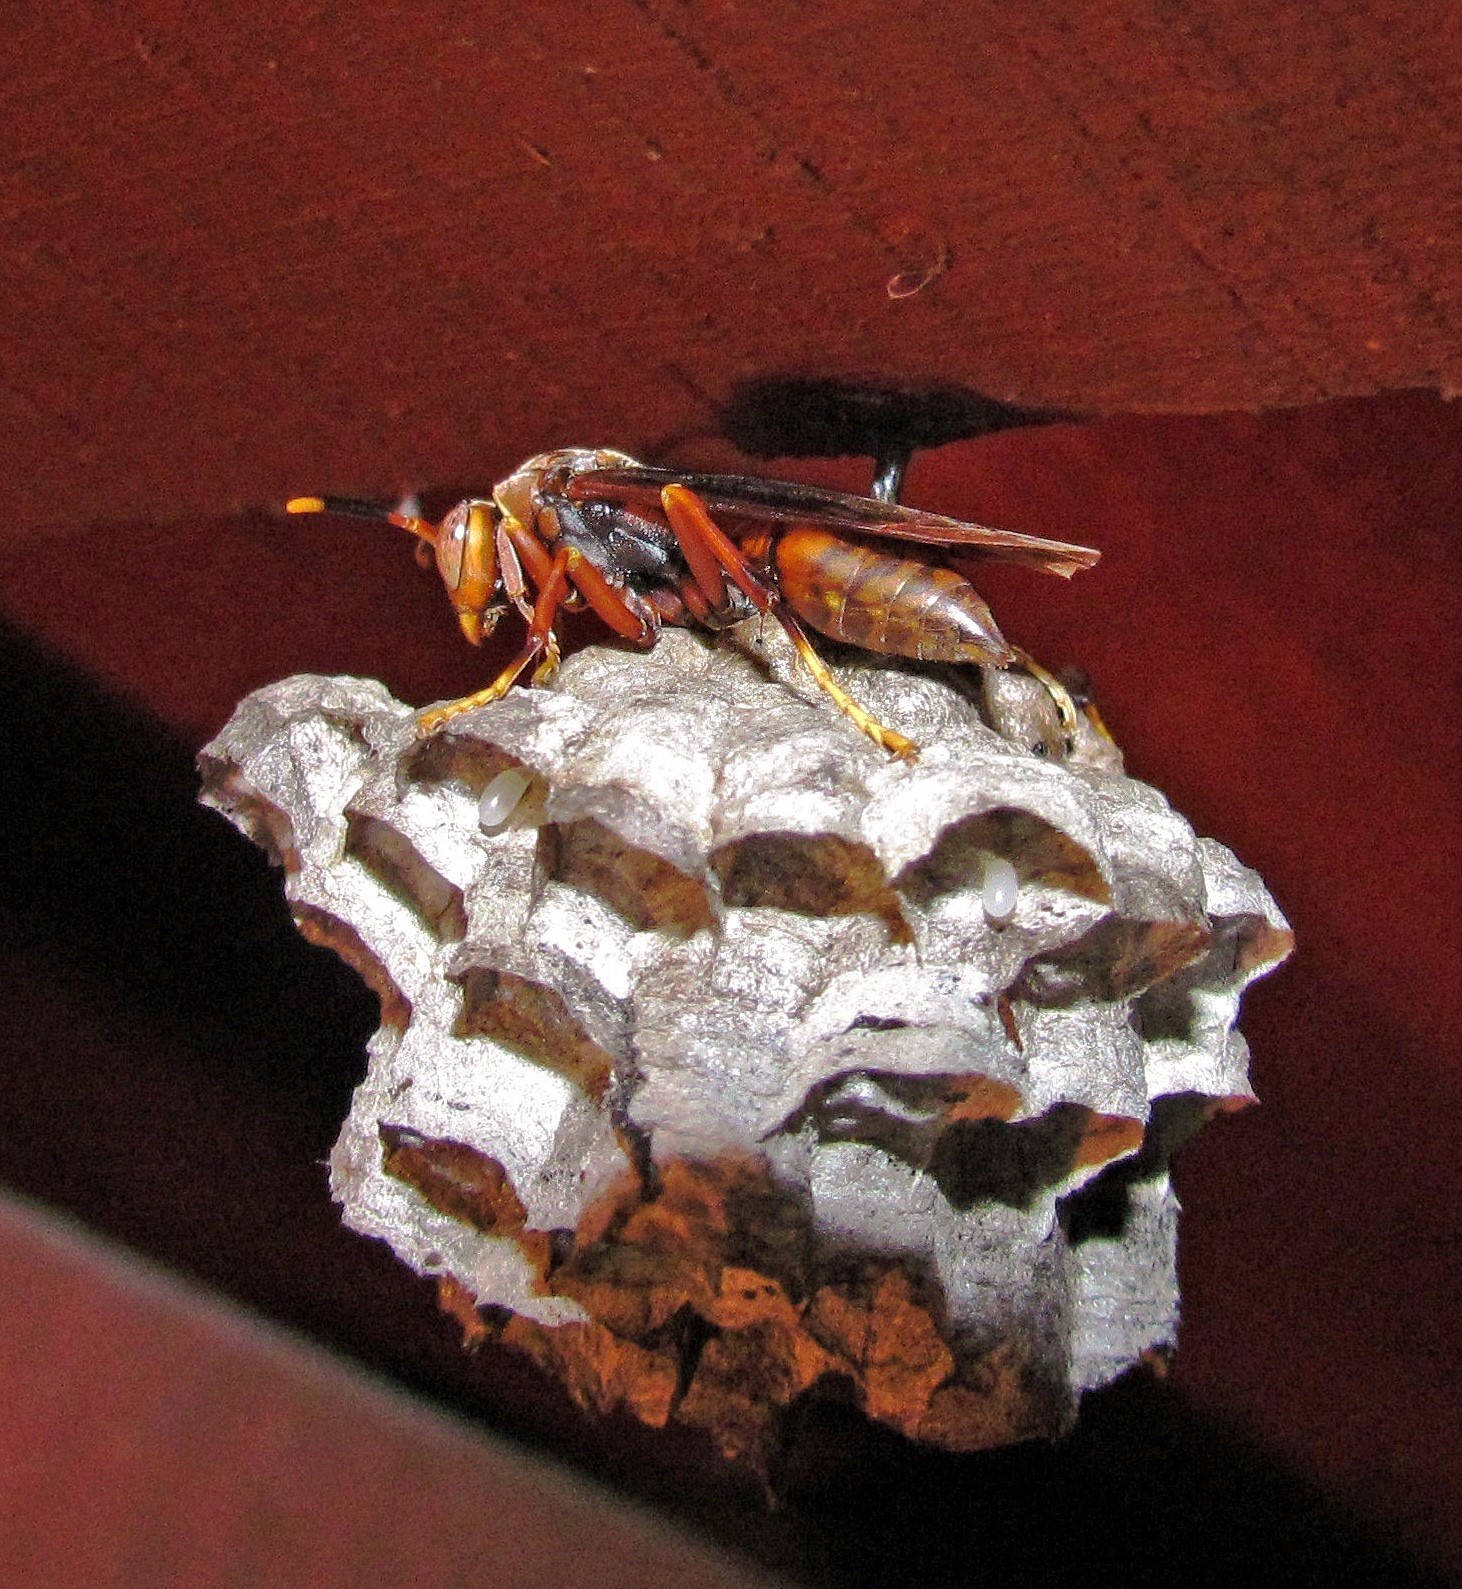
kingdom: Animalia
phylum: Arthropoda
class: Insecta
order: Hymenoptera
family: Pompilidae
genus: Aphanilopterus
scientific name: Aphanilopterus
